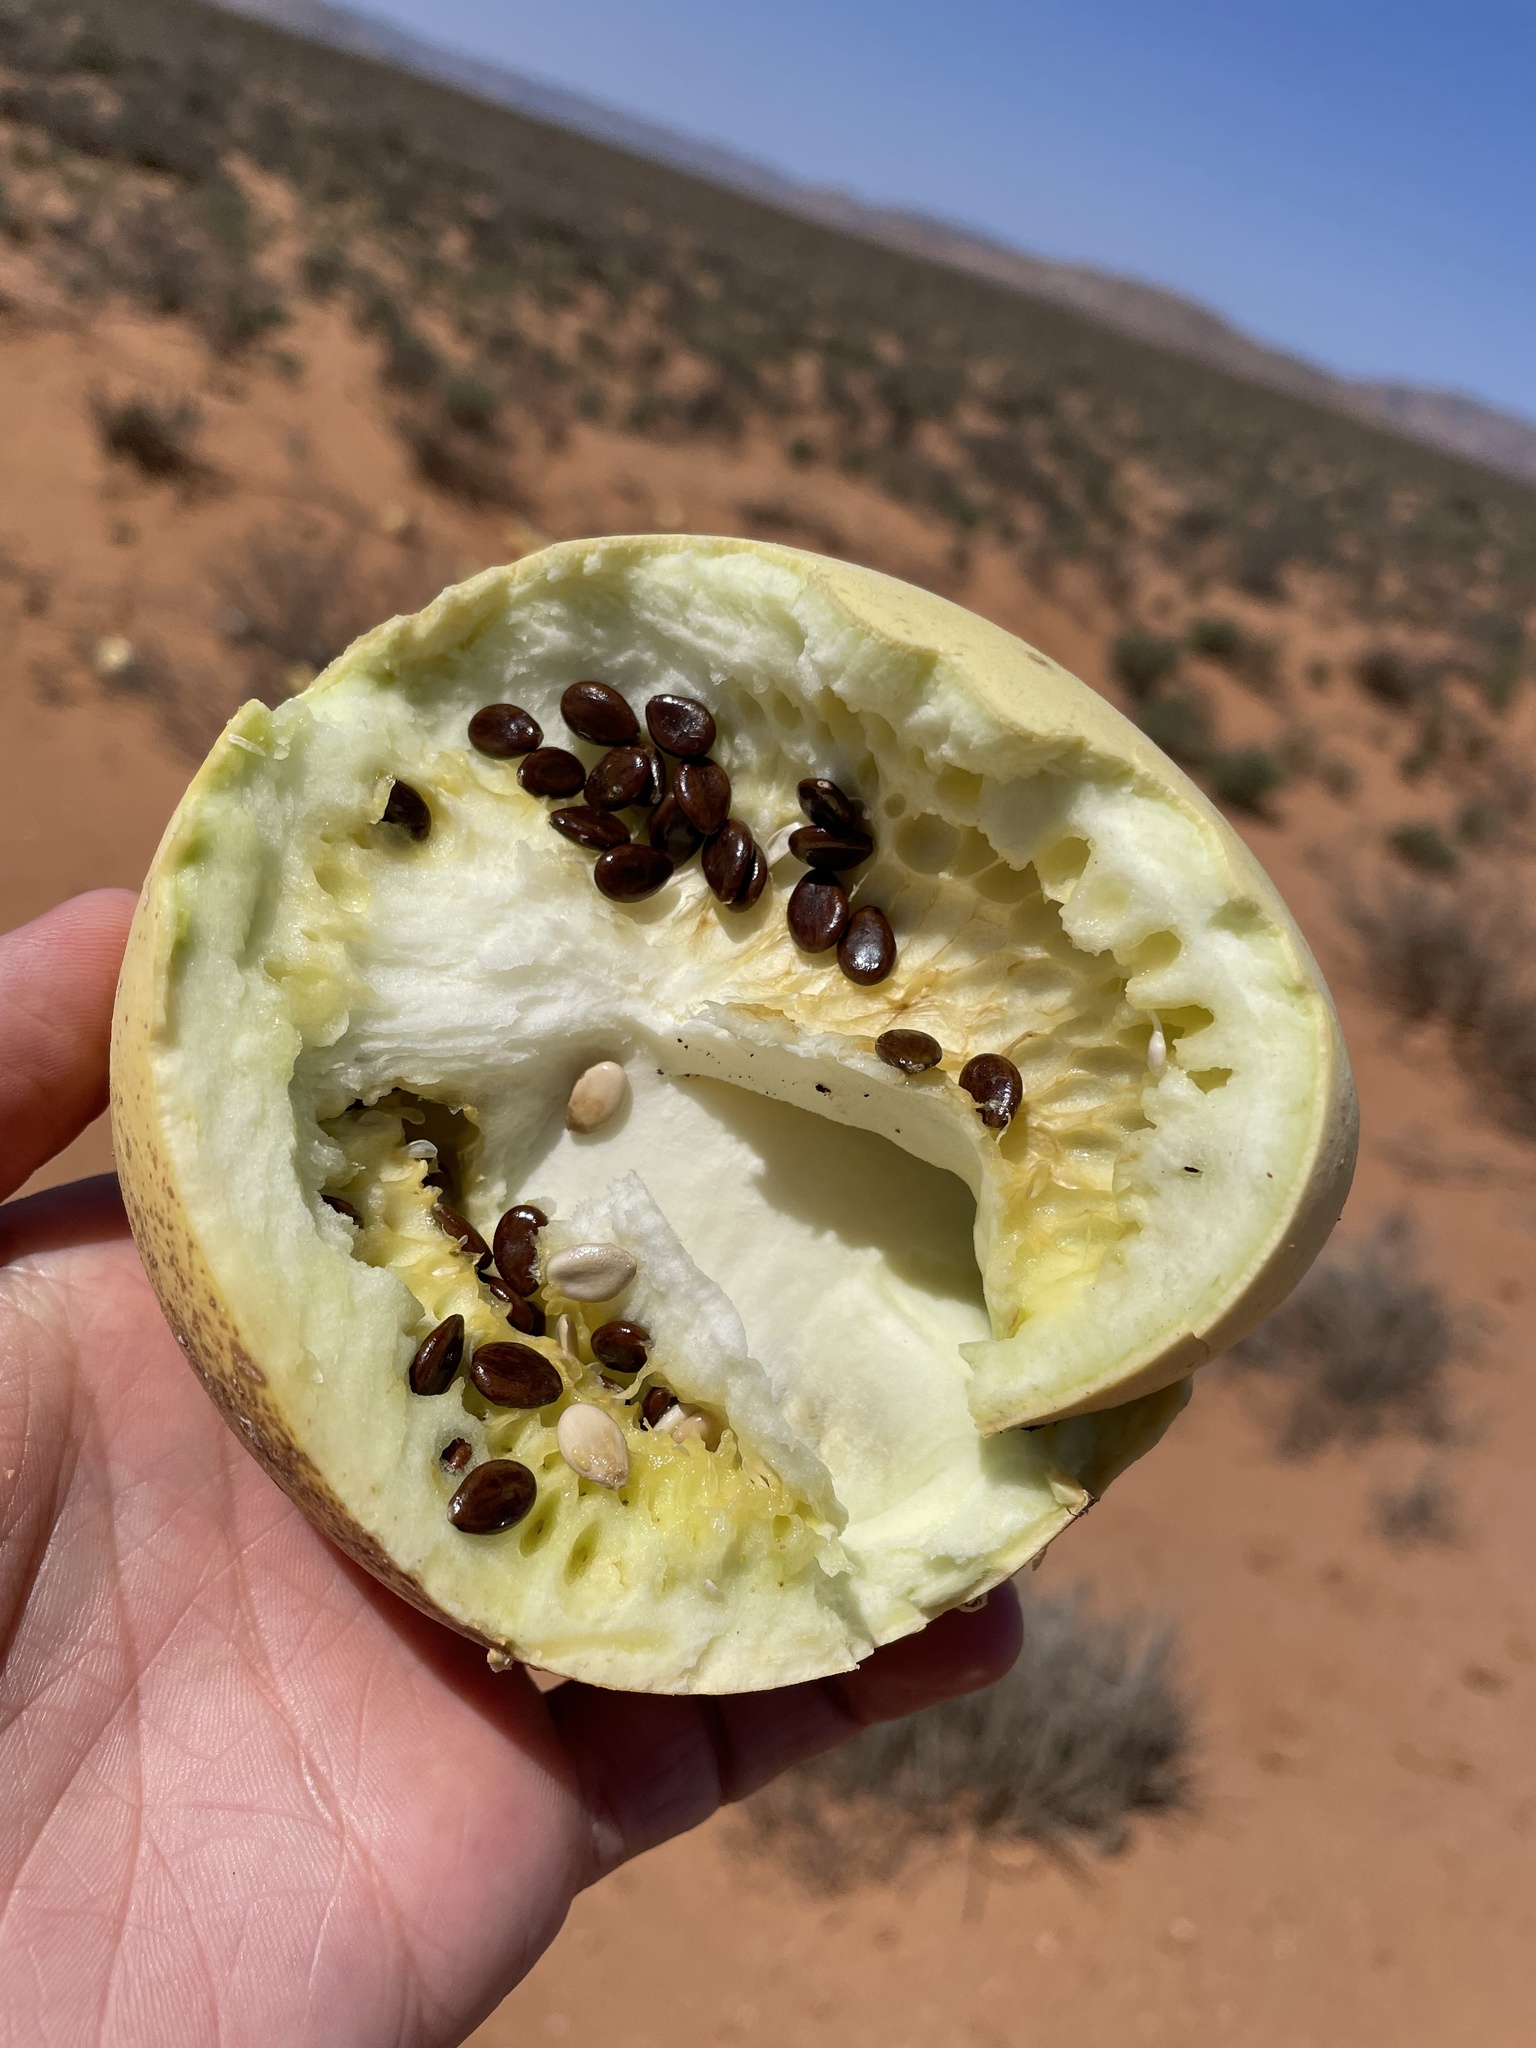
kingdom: Plantae
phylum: Tracheophyta
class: Magnoliopsida
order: Cucurbitales
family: Cucurbitaceae
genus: Citrullus
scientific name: Citrullus ecirrhosus
